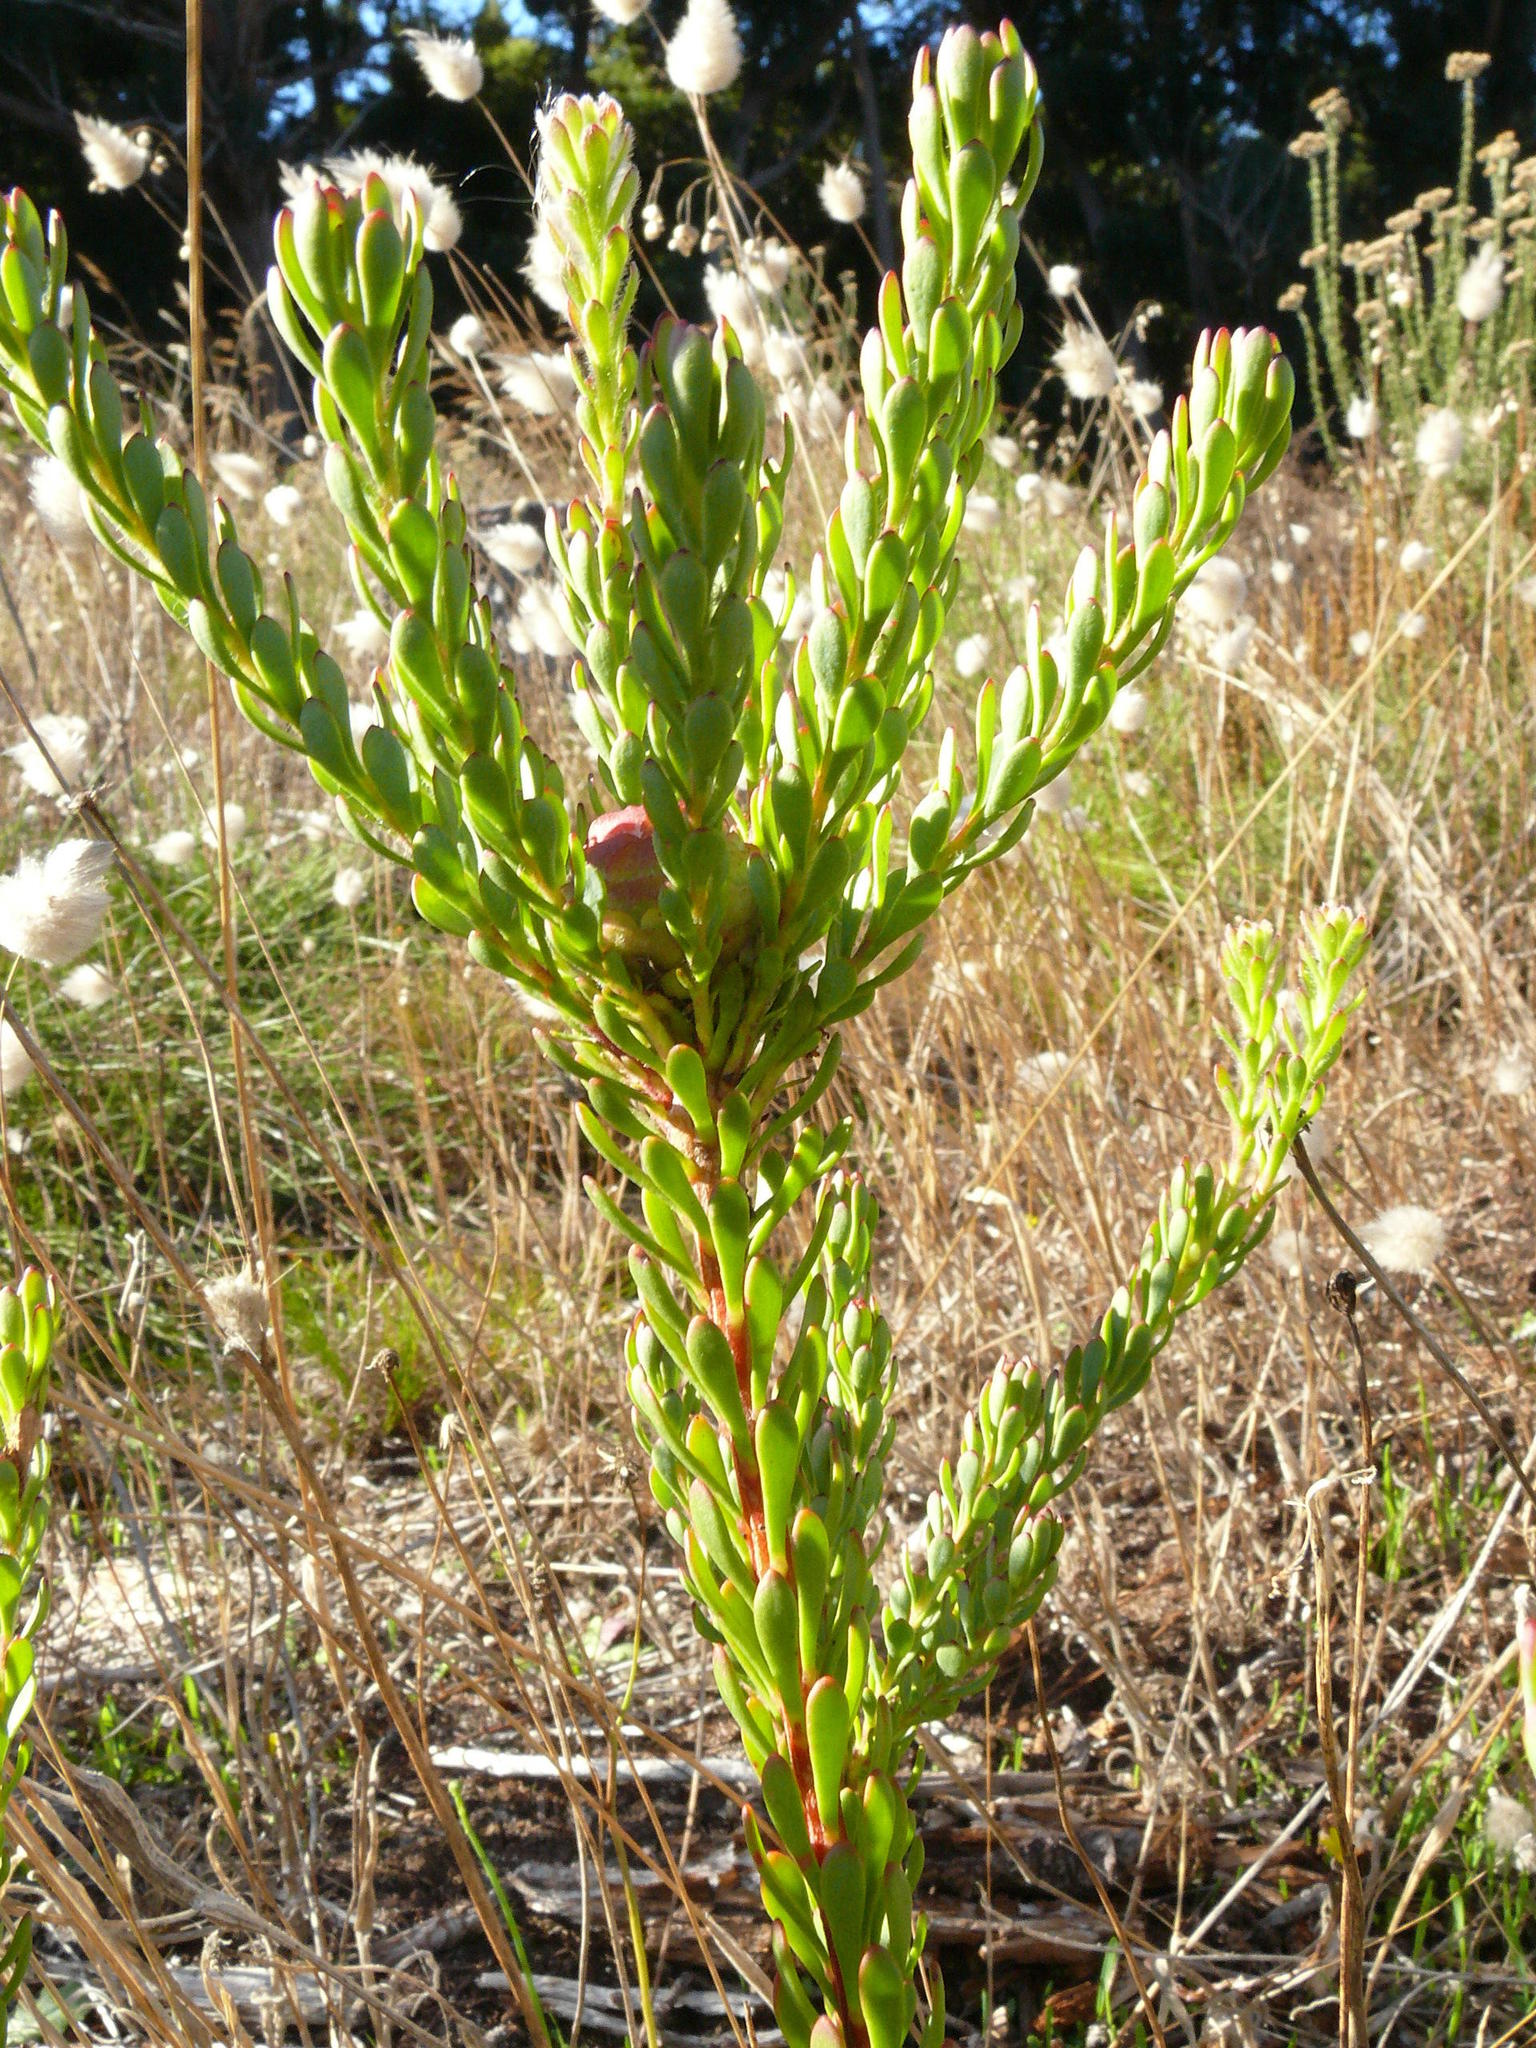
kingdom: Plantae
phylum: Tracheophyta
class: Magnoliopsida
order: Proteales
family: Proteaceae
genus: Leucadendron
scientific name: Leucadendron levisanus
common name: Cape flats conebush
